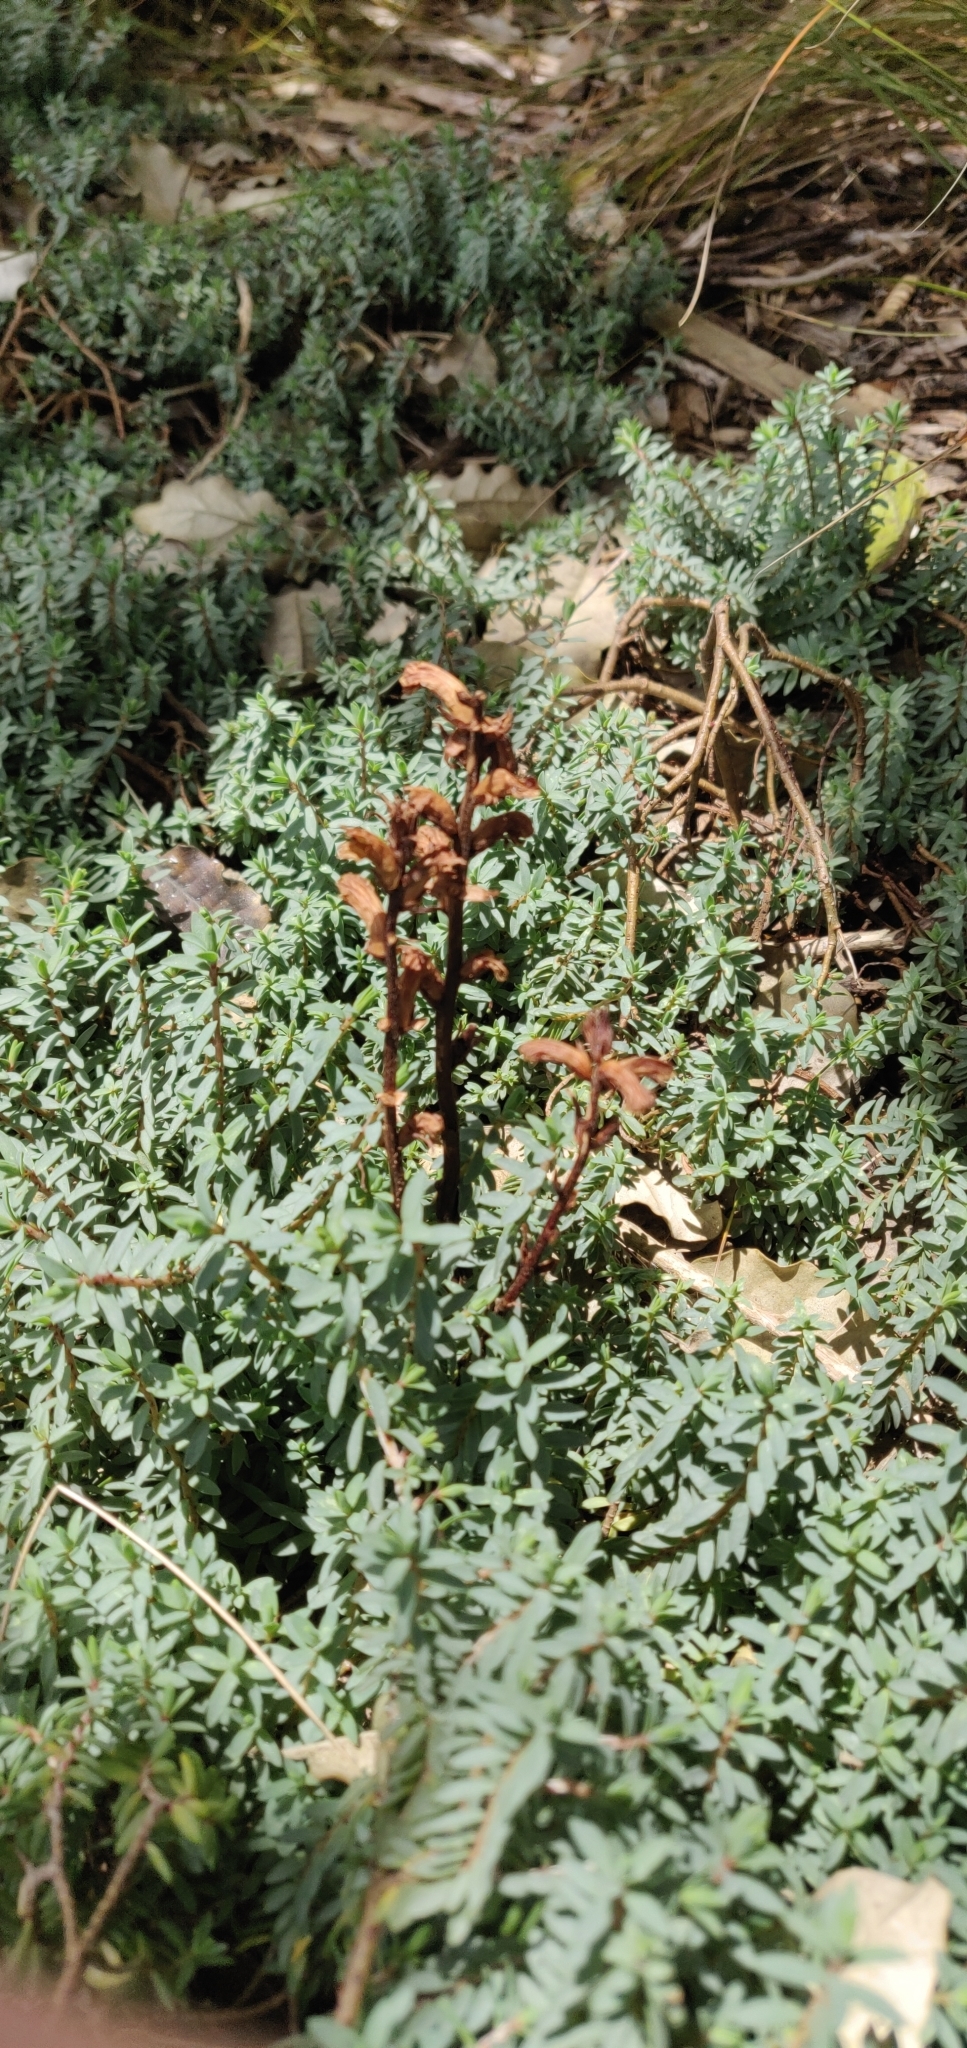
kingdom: Plantae
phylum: Tracheophyta
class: Magnoliopsida
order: Lamiales
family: Orobanchaceae
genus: Orobanche
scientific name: Orobanche minor
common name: Common broomrape
